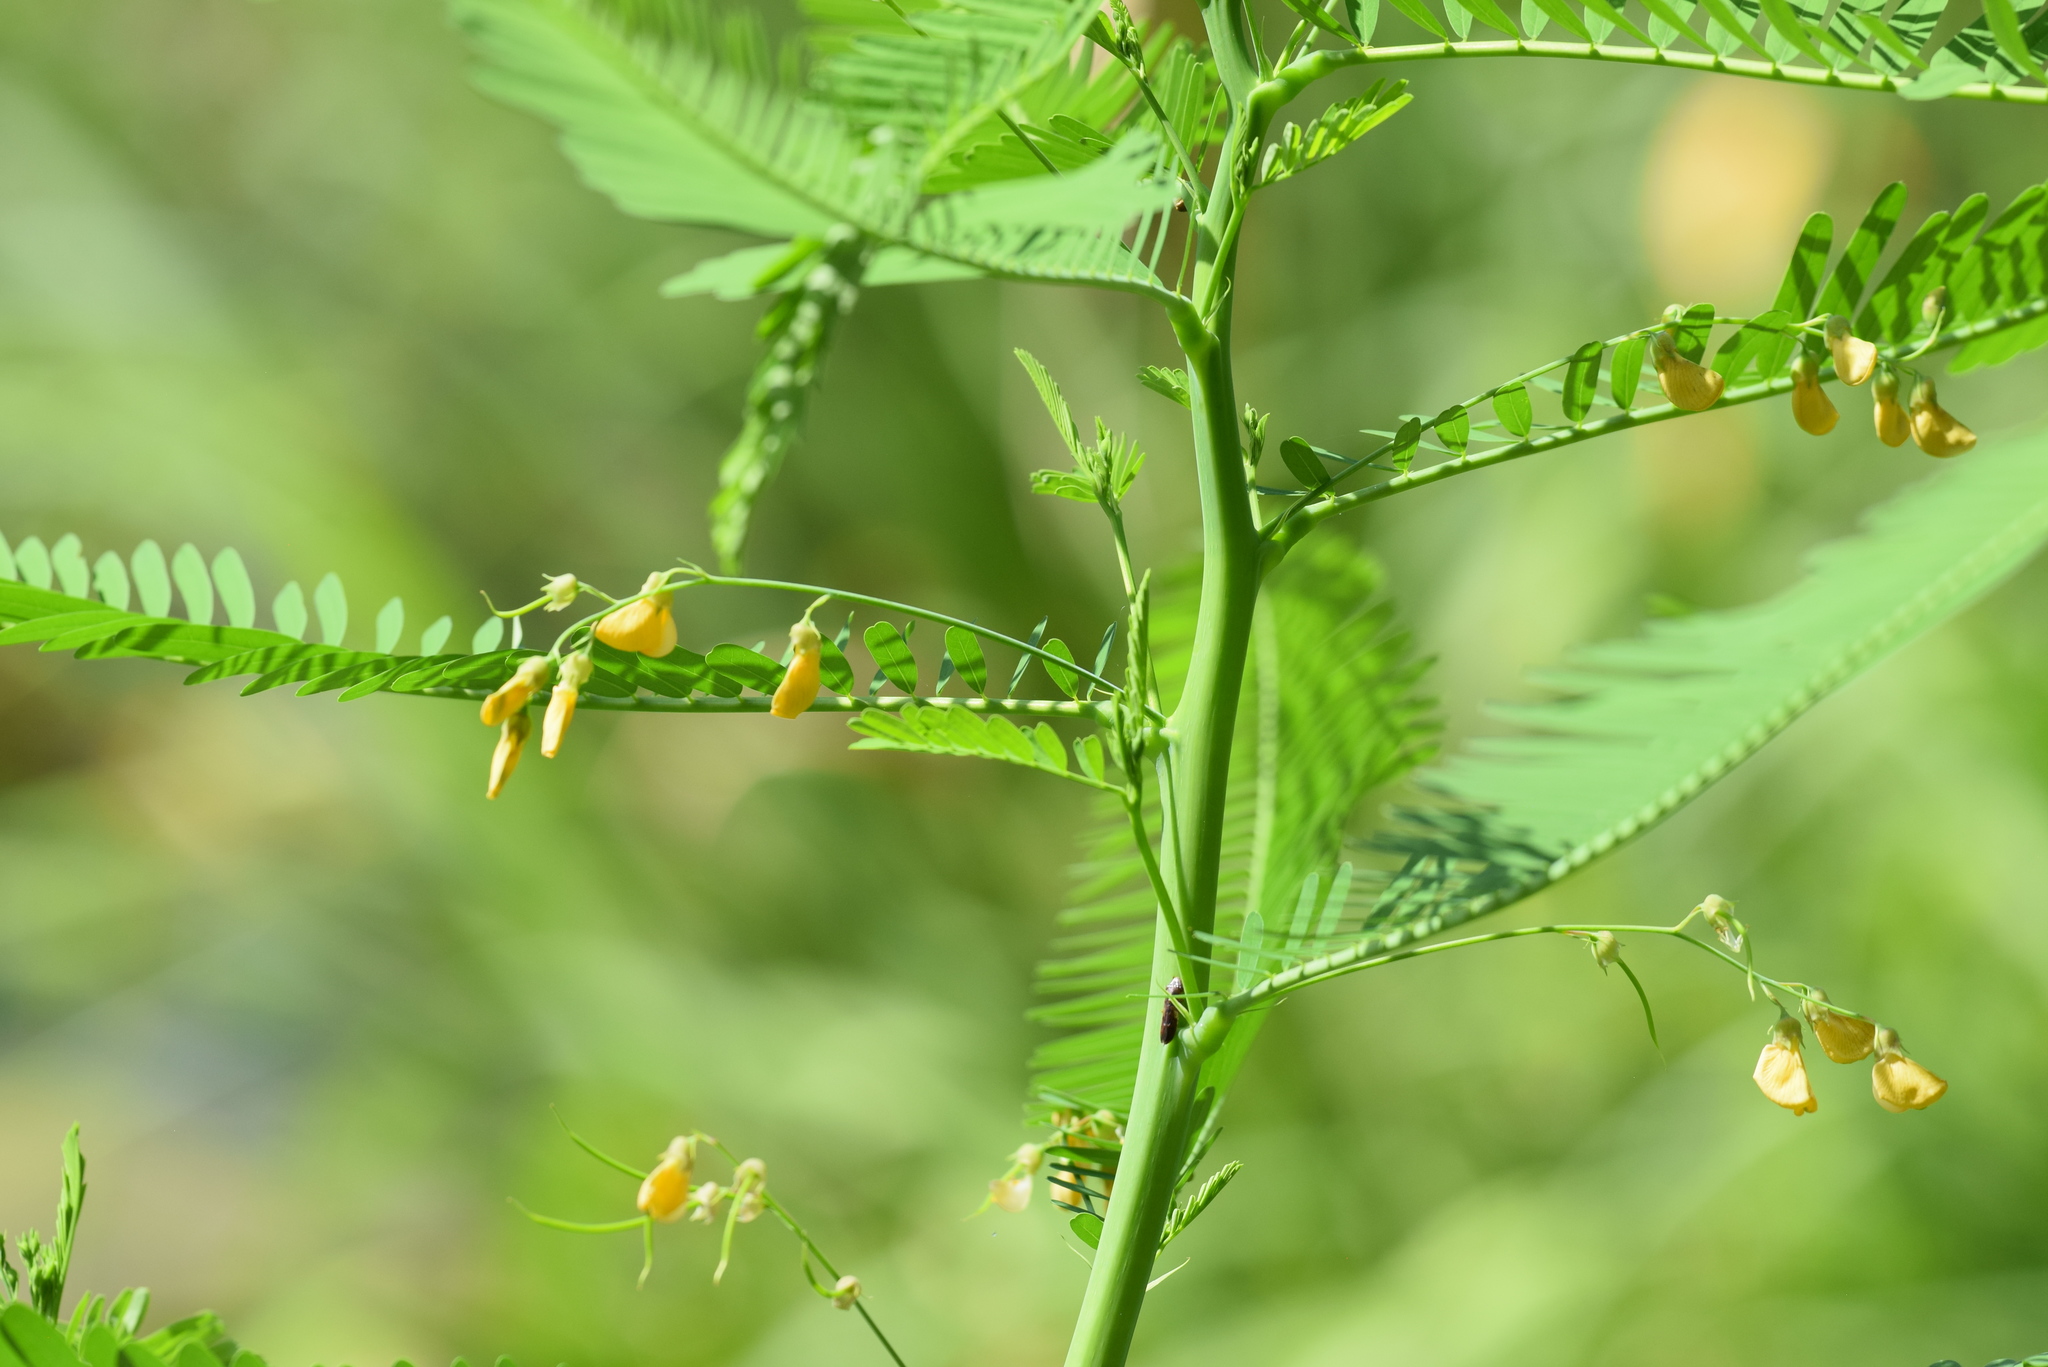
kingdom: Plantae
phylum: Tracheophyta
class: Magnoliopsida
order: Fabales
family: Fabaceae
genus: Sesbania
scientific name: Sesbania herbacea
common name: Bigpod sesbania
